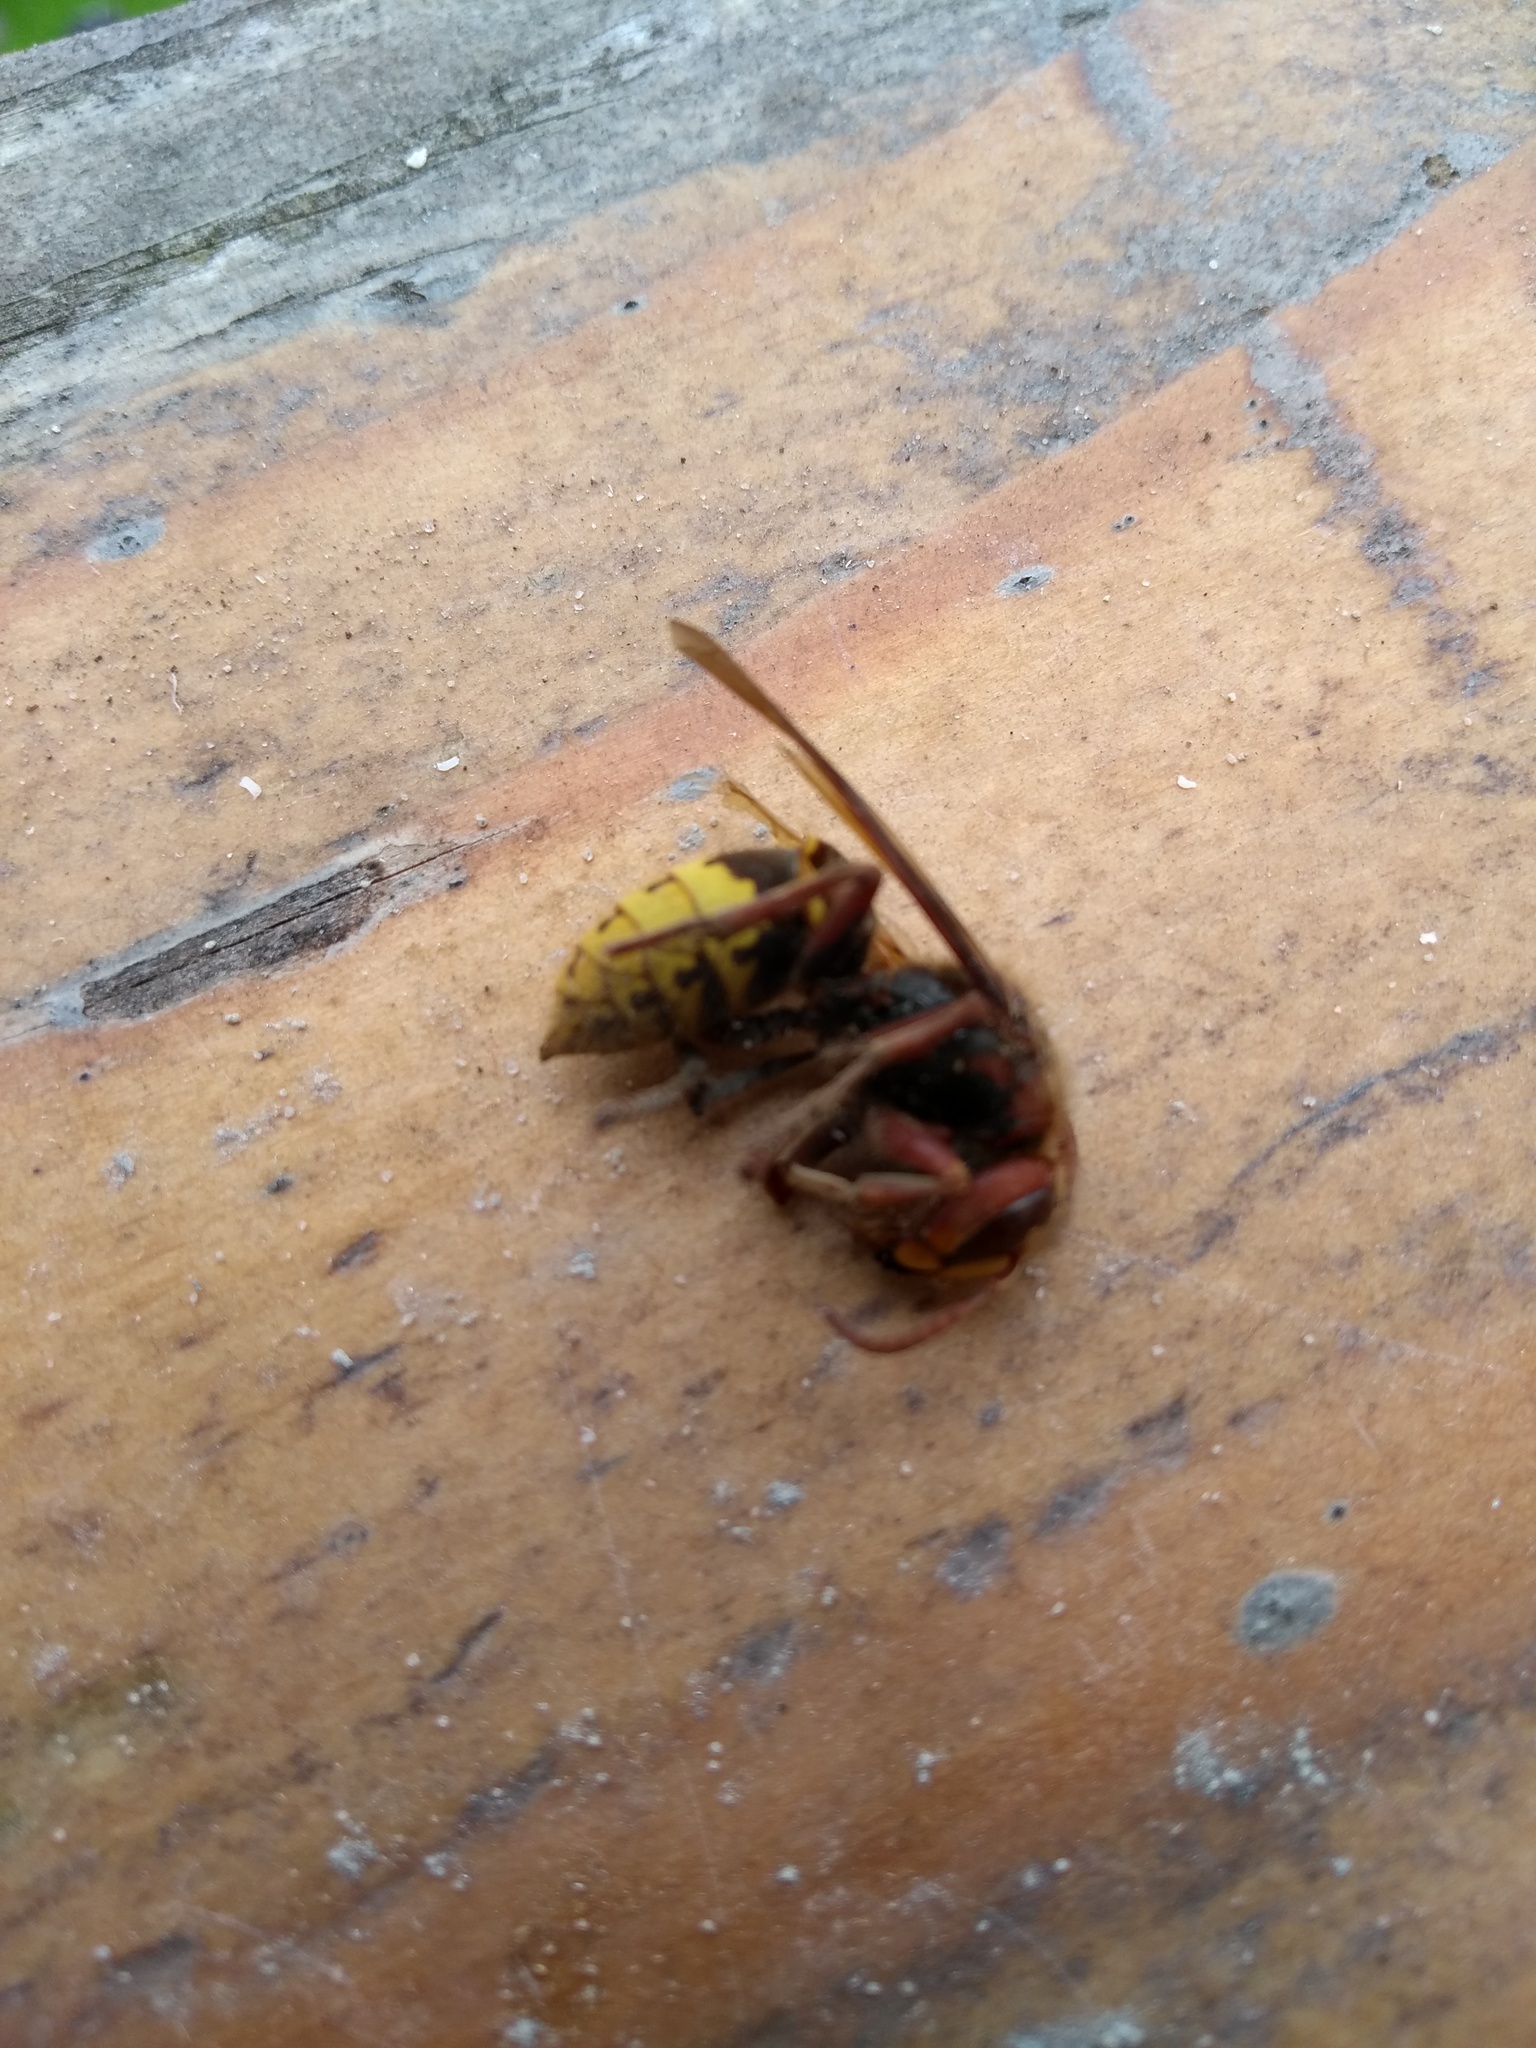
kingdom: Animalia
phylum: Arthropoda
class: Insecta
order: Hymenoptera
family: Vespidae
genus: Vespa
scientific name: Vespa crabro
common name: Hornet
